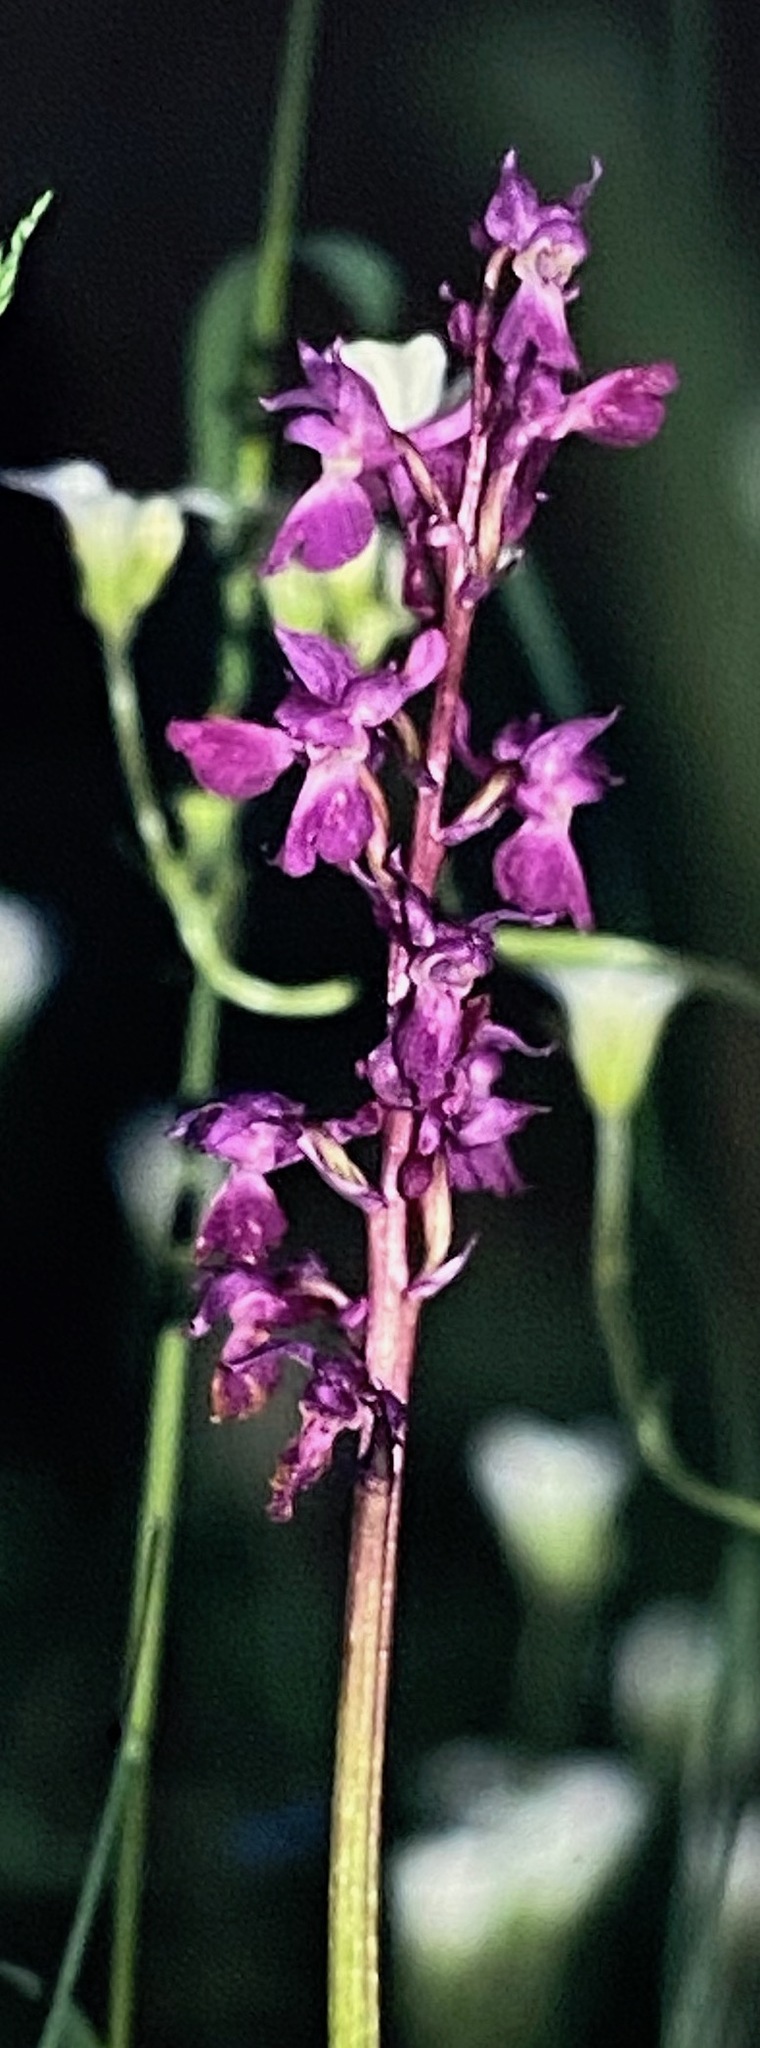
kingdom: Plantae
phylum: Tracheophyta
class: Liliopsida
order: Asparagales
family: Orchidaceae
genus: Orchis
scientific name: Orchis mascula
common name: Early-purple orchid
